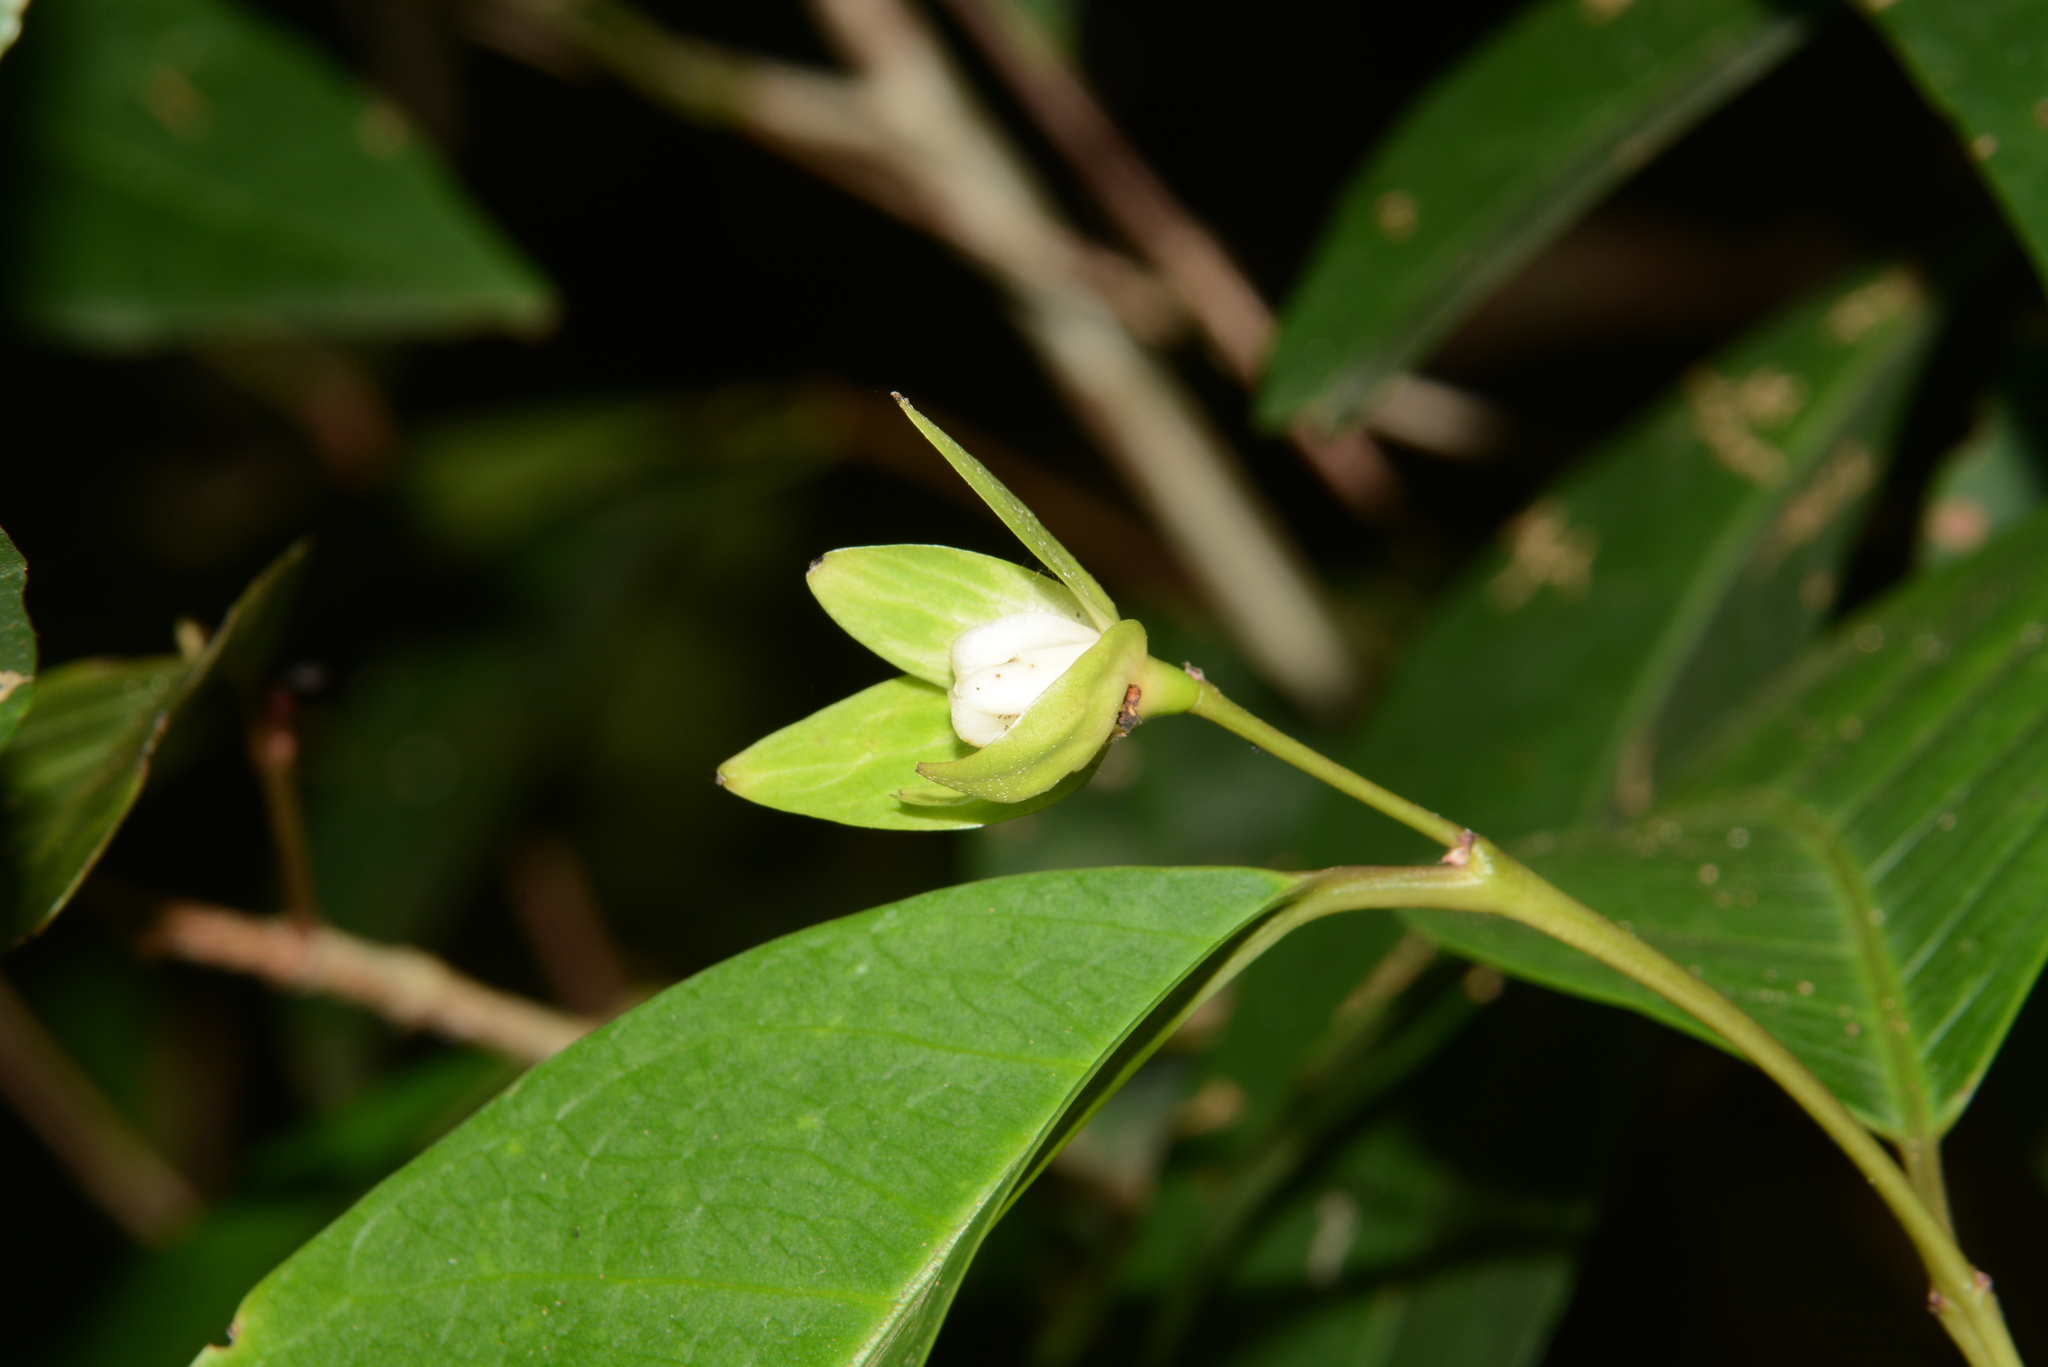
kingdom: Plantae
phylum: Tracheophyta
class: Magnoliopsida
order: Malpighiales
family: Euphorbiaceae
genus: Tritaxis
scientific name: Tritaxis glabella
